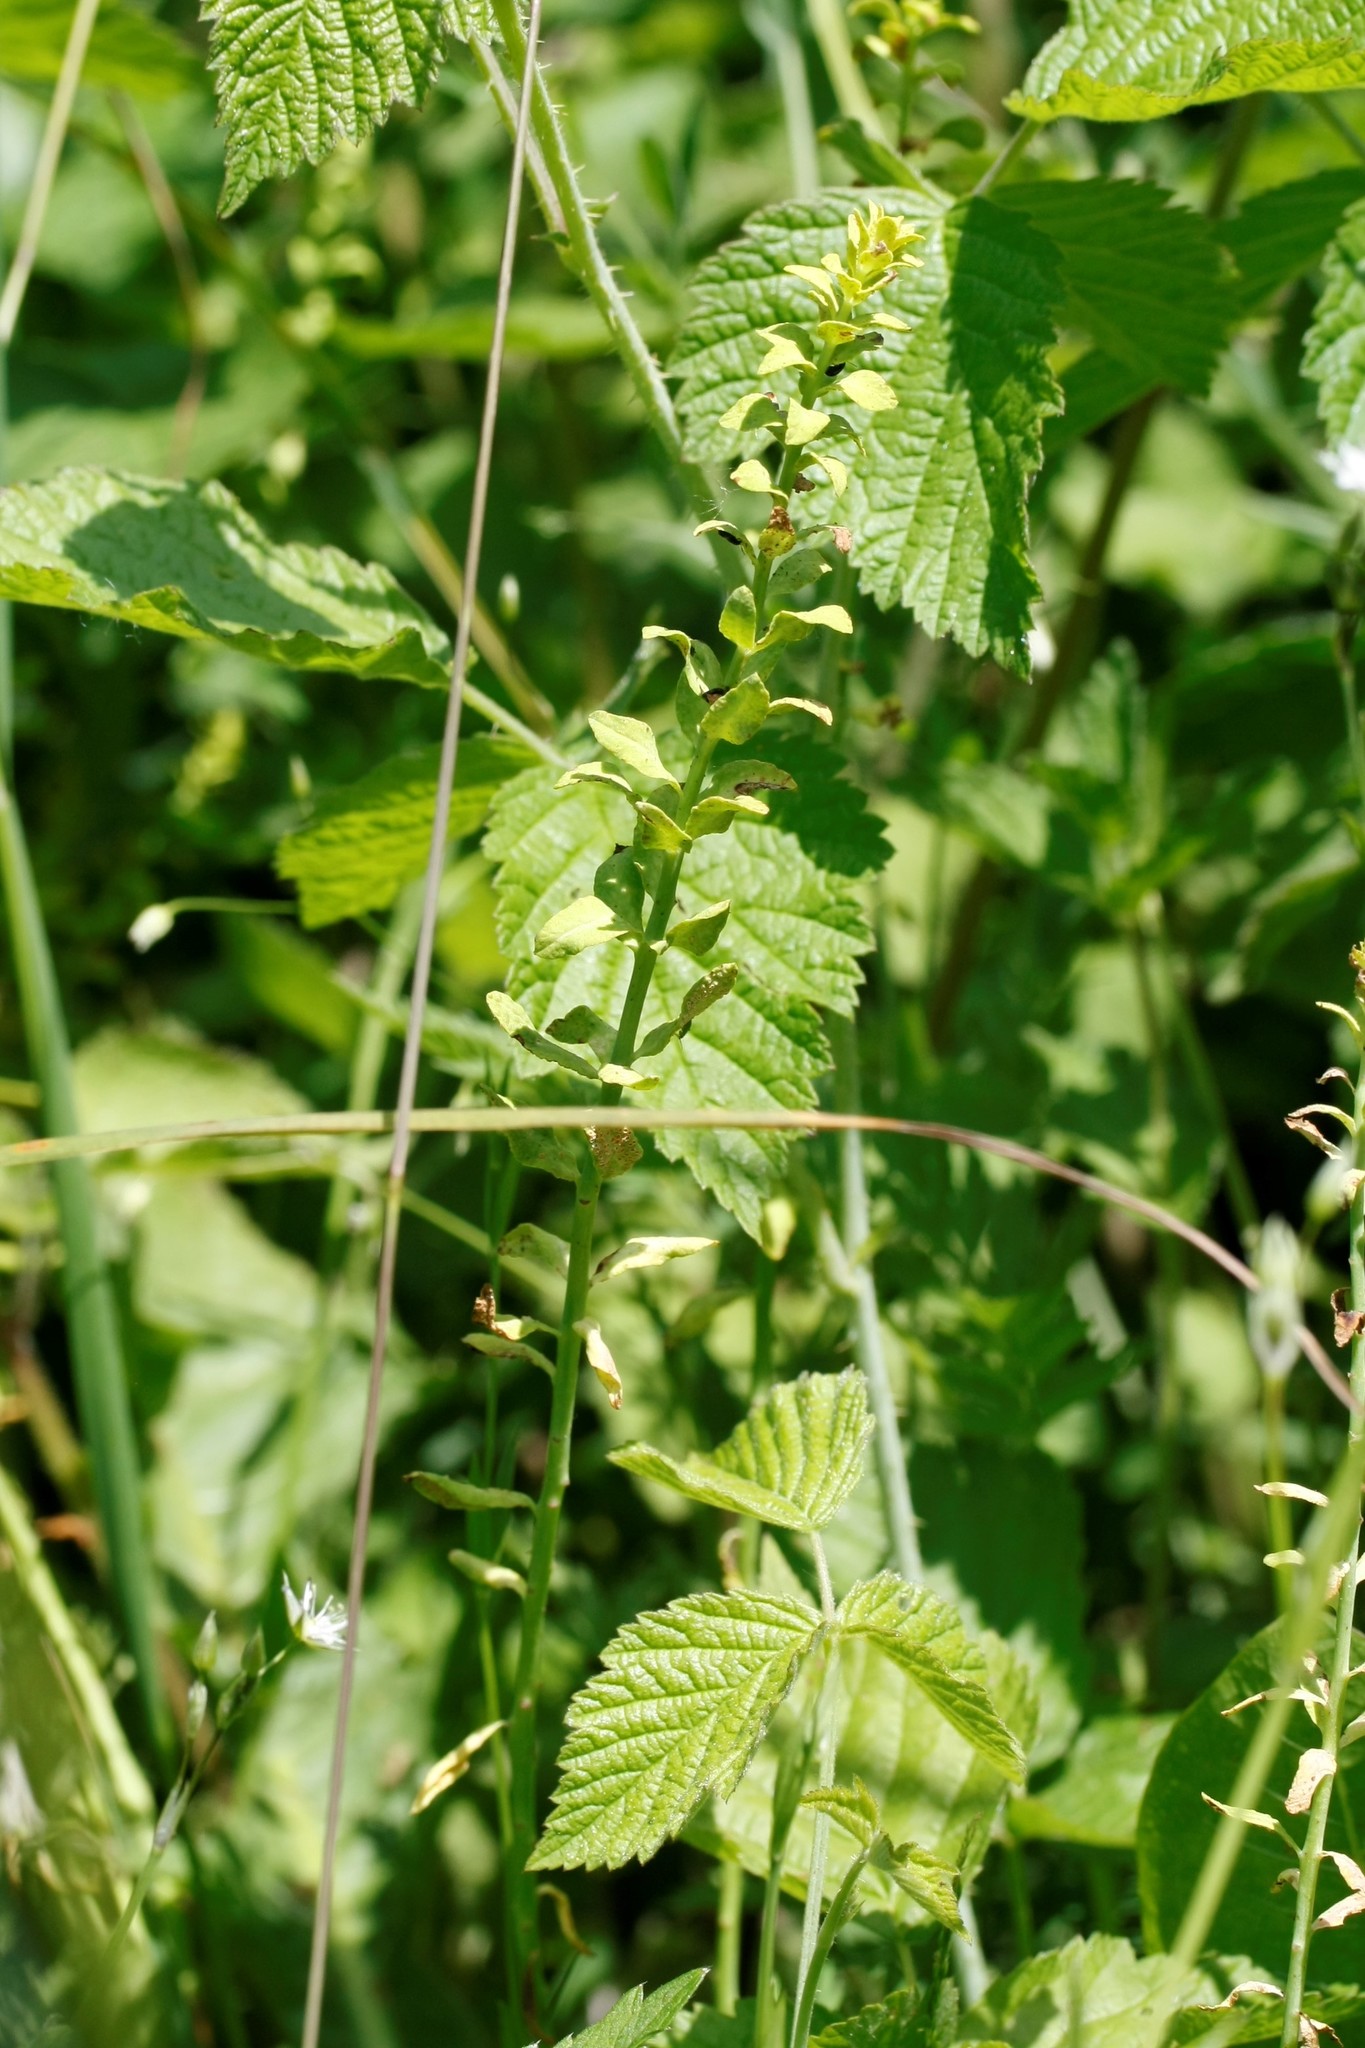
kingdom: Plantae
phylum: Tracheophyta
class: Magnoliopsida
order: Gentianales
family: Rubiaceae
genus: Cruciata
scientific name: Cruciata laevipes
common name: Crosswort
